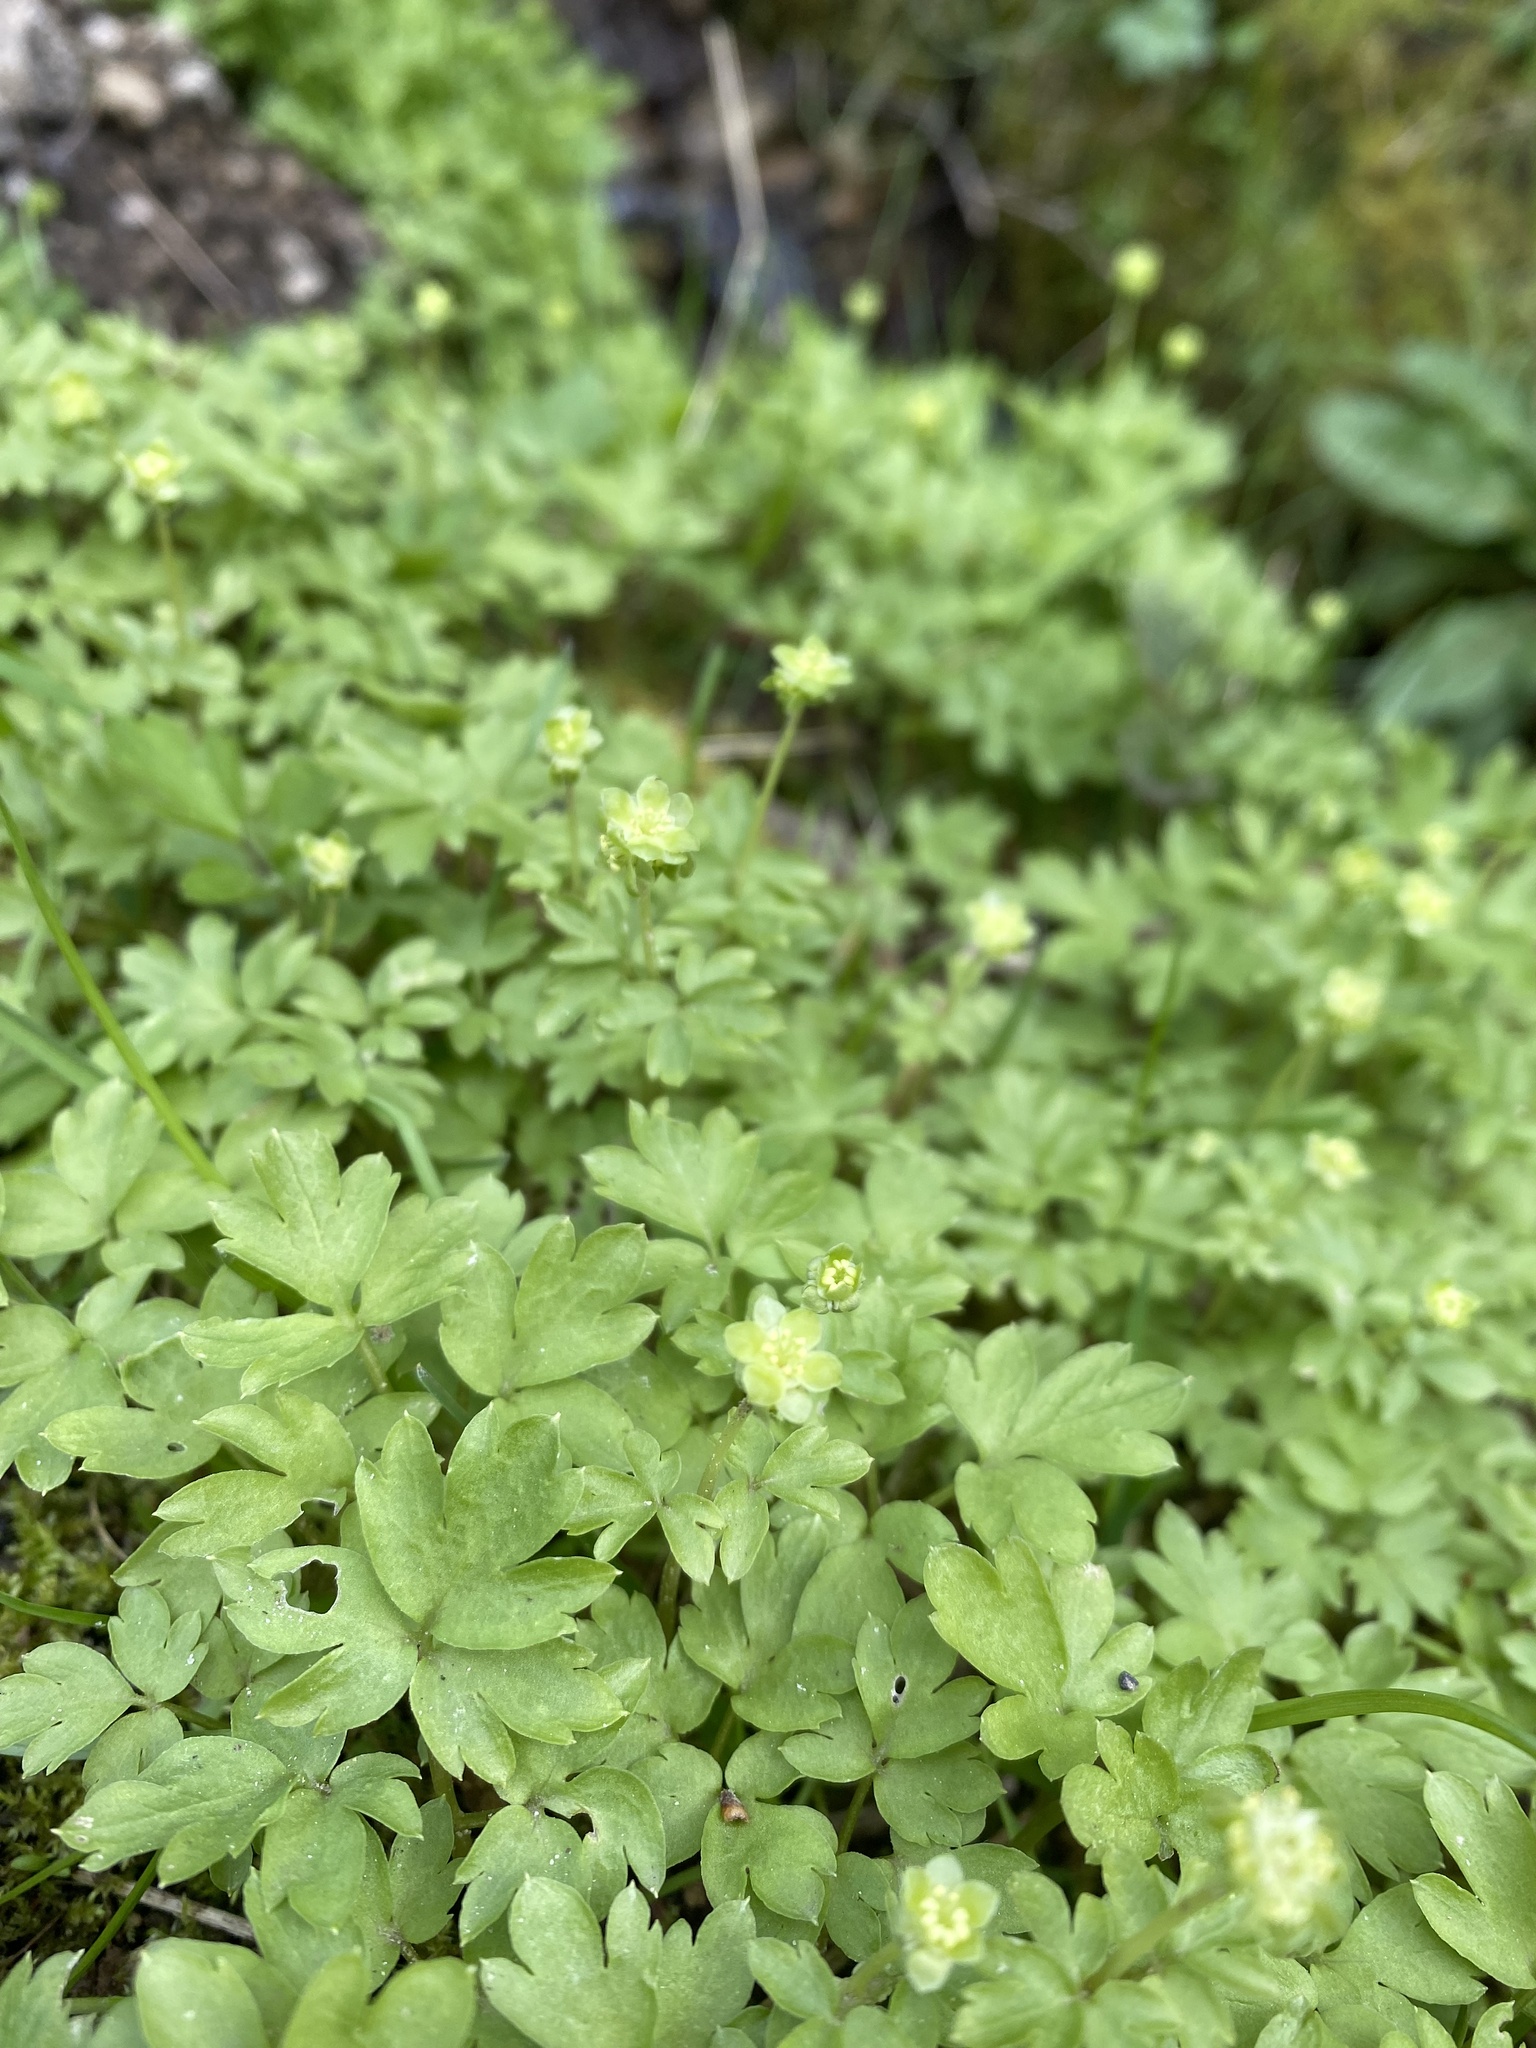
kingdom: Plantae
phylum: Tracheophyta
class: Magnoliopsida
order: Dipsacales
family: Viburnaceae
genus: Adoxa
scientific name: Adoxa moschatellina
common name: Moschatel
